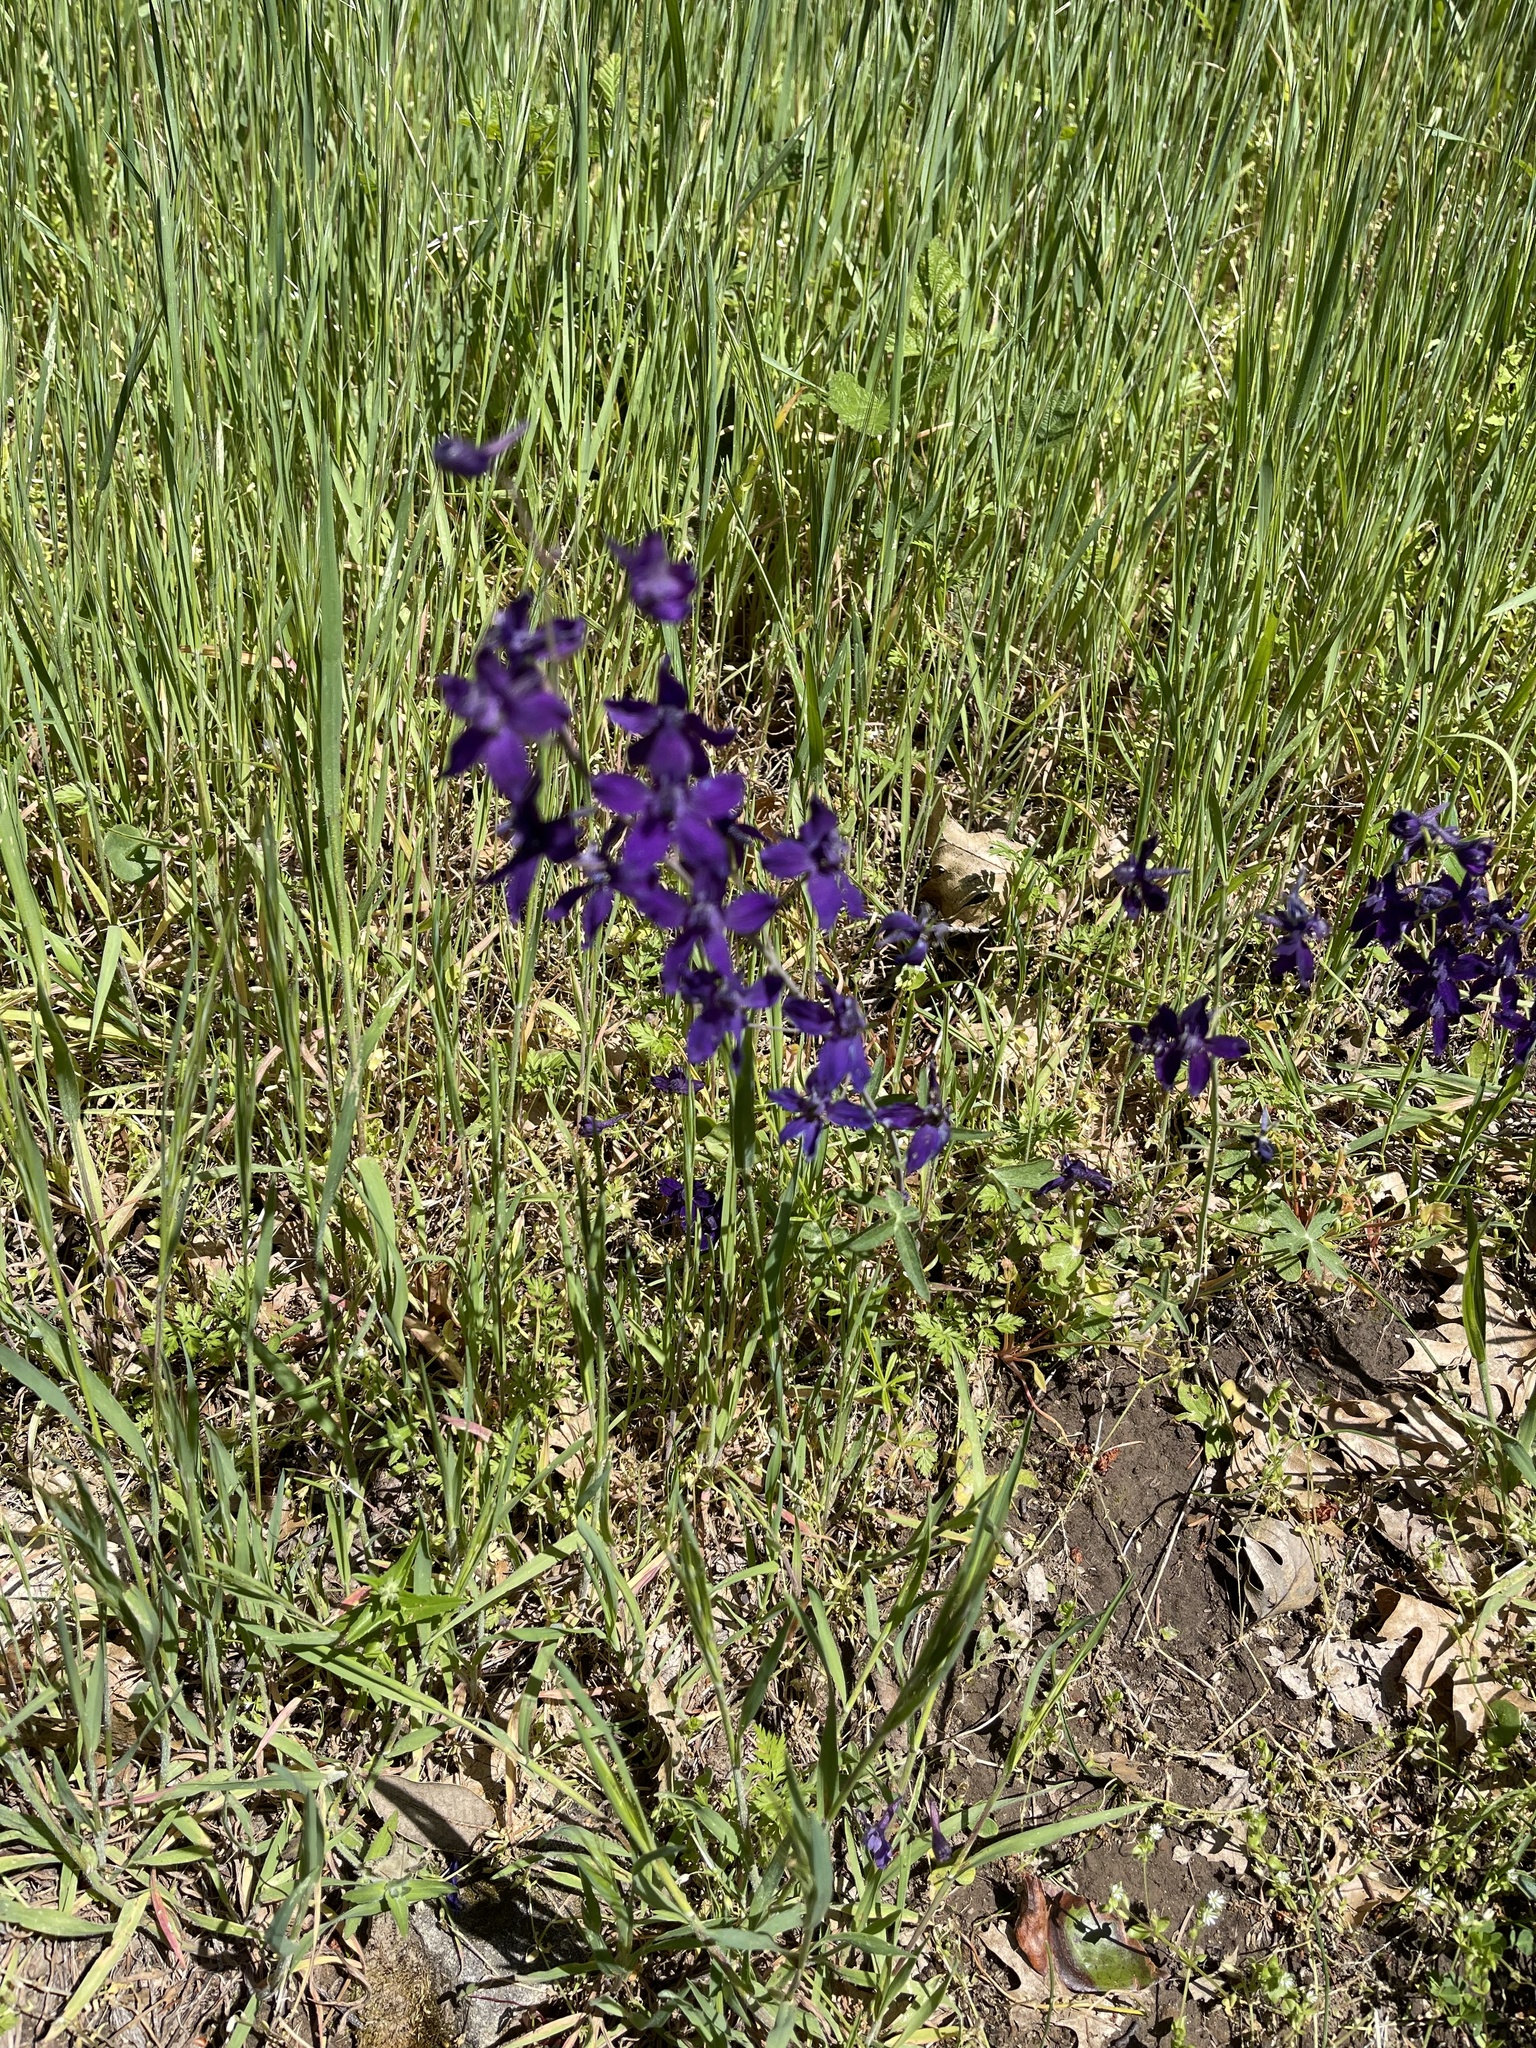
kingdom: Plantae
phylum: Tracheophyta
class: Magnoliopsida
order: Ranunculales
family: Ranunculaceae
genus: Delphinium
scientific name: Delphinium patens
